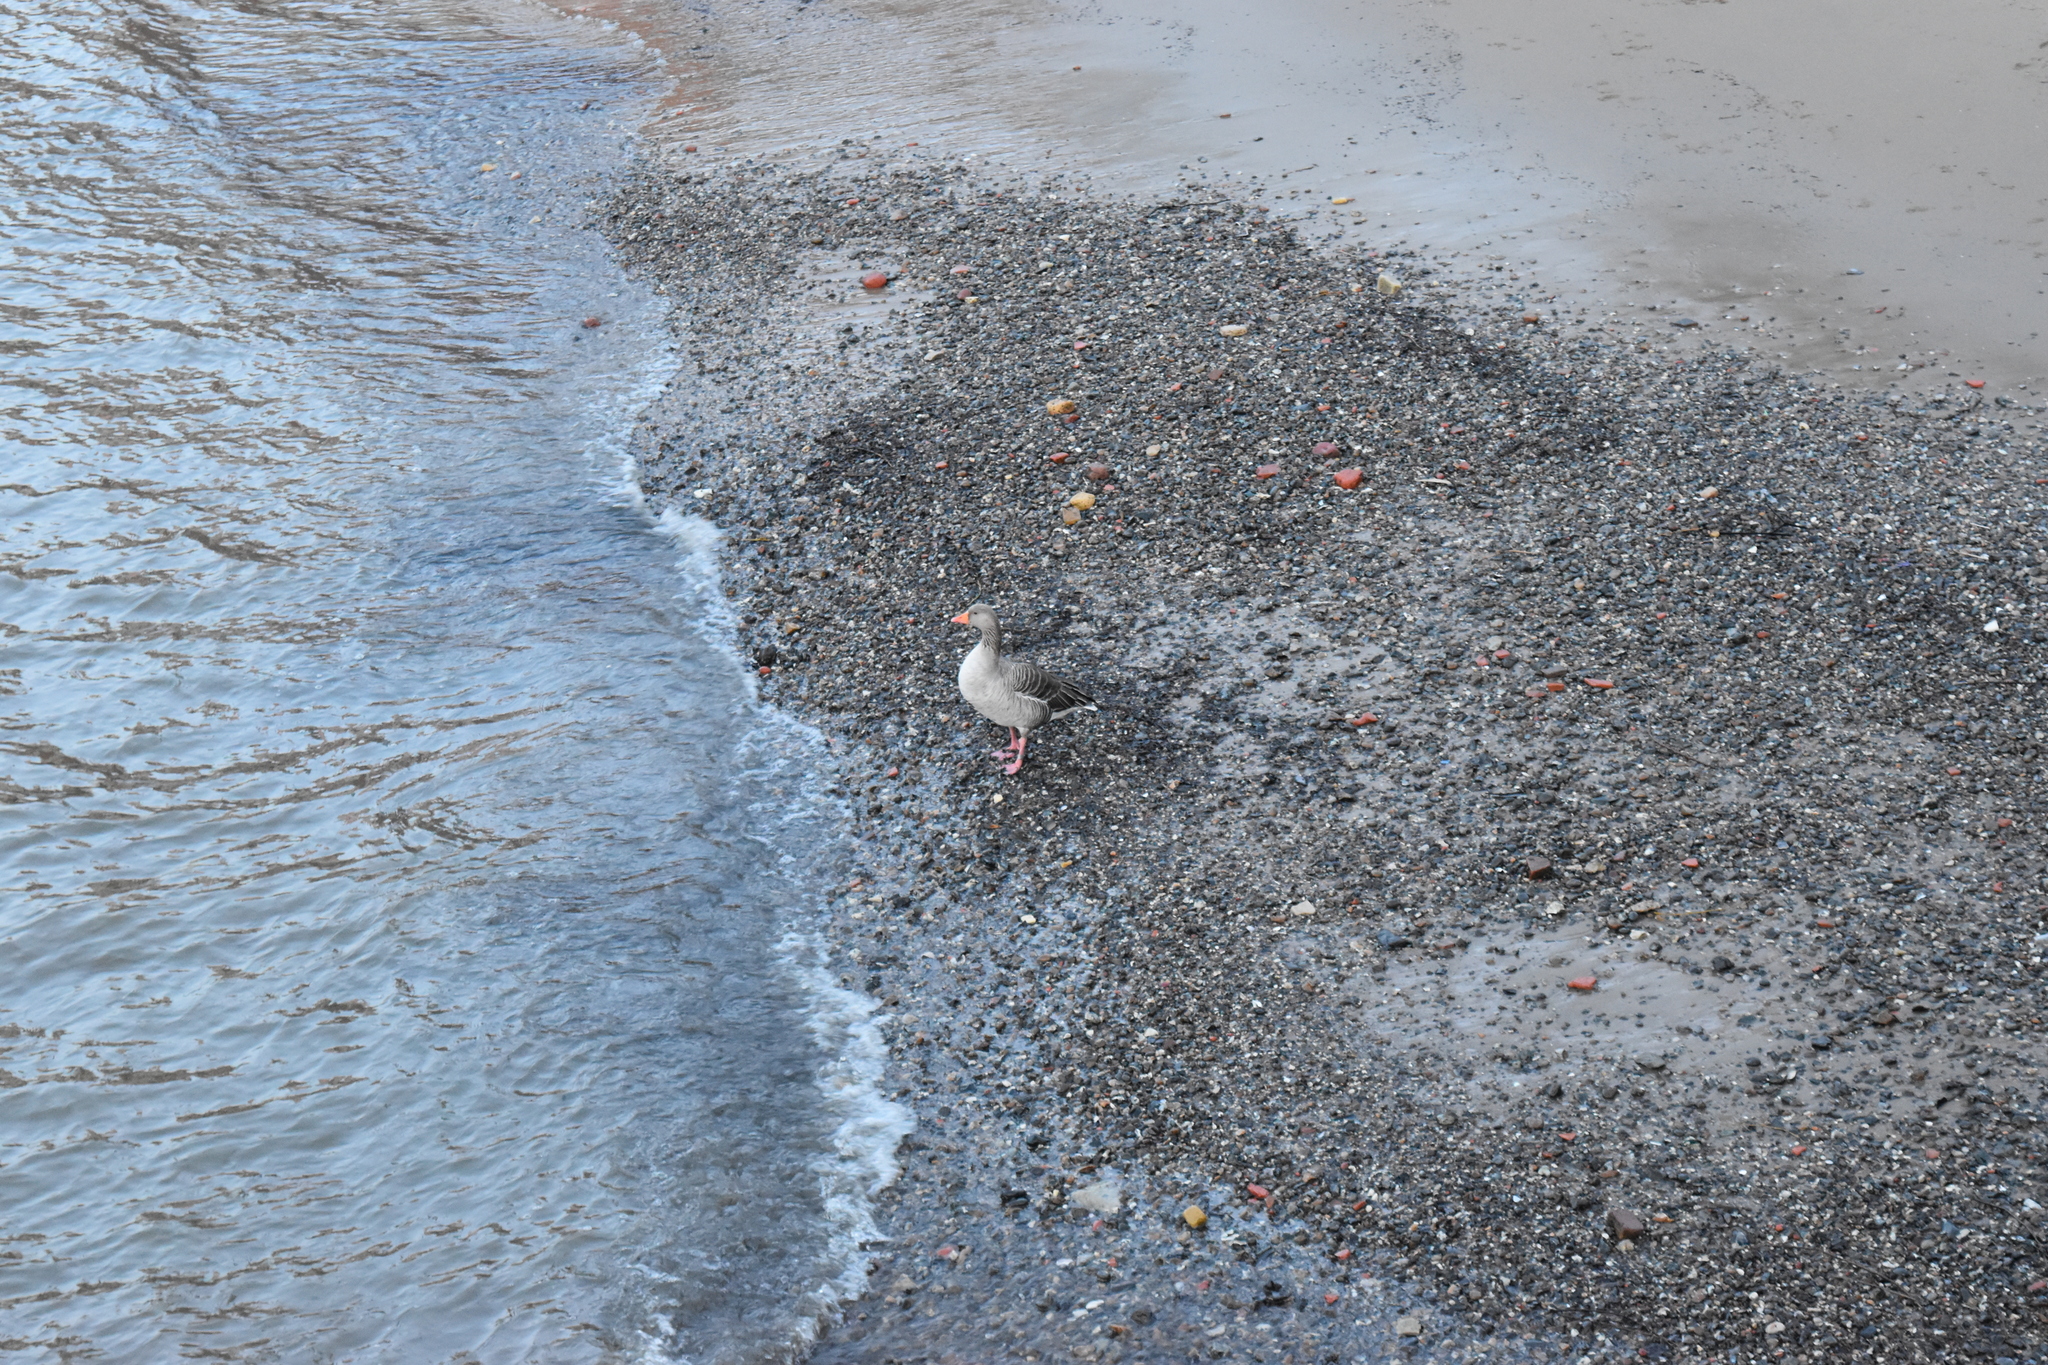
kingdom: Animalia
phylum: Chordata
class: Aves
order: Anseriformes
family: Anatidae
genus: Anser
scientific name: Anser anser
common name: Greylag goose
